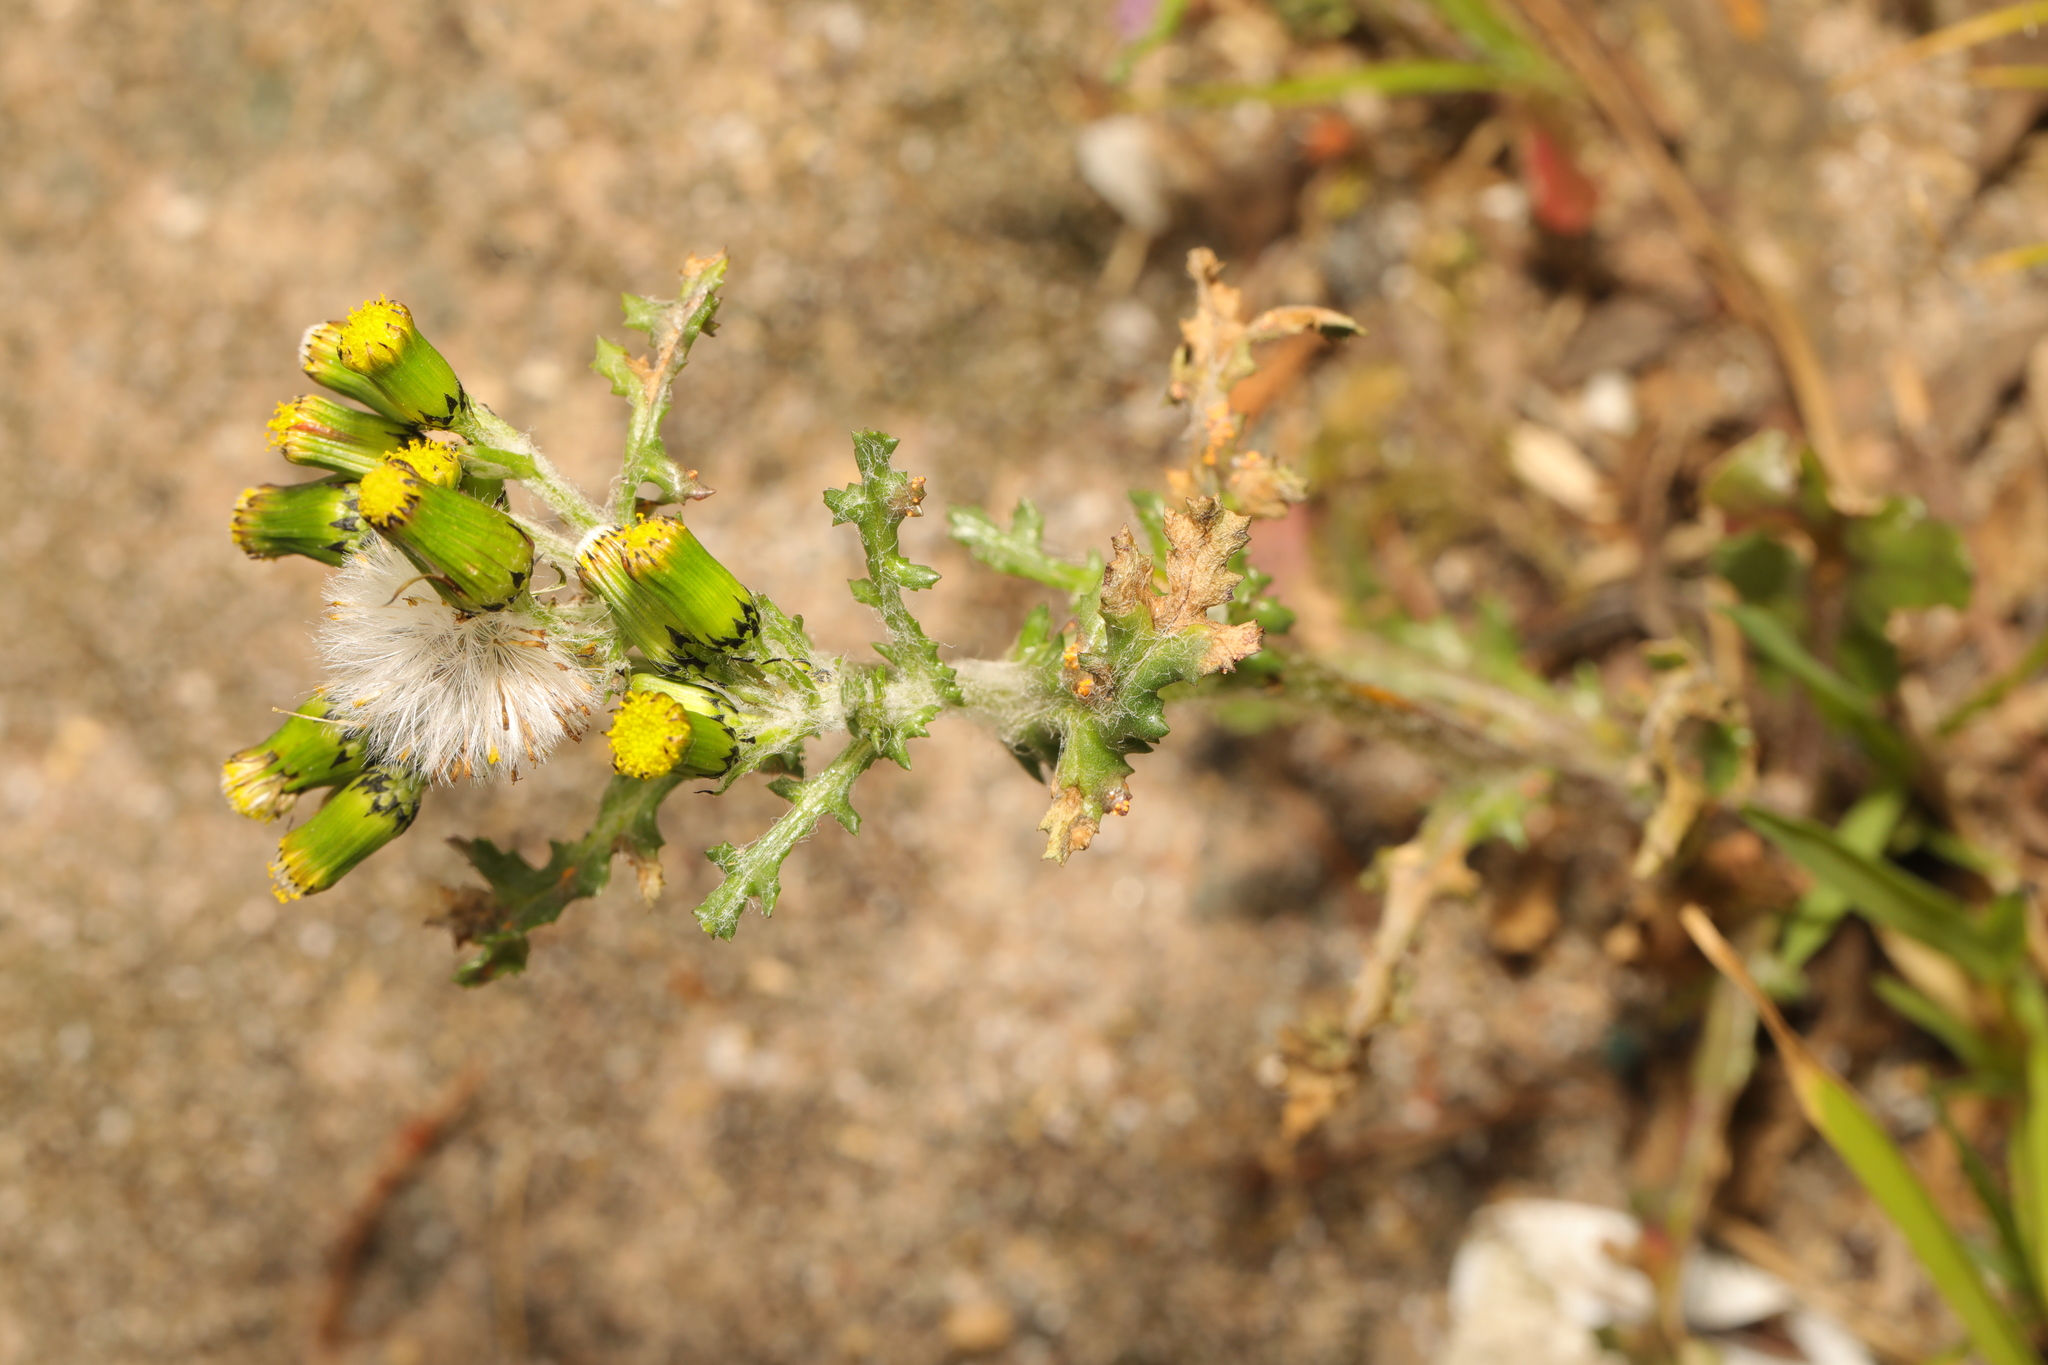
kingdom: Plantae
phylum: Tracheophyta
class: Magnoliopsida
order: Asterales
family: Asteraceae
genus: Senecio
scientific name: Senecio vulgaris
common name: Old-man-in-the-spring
